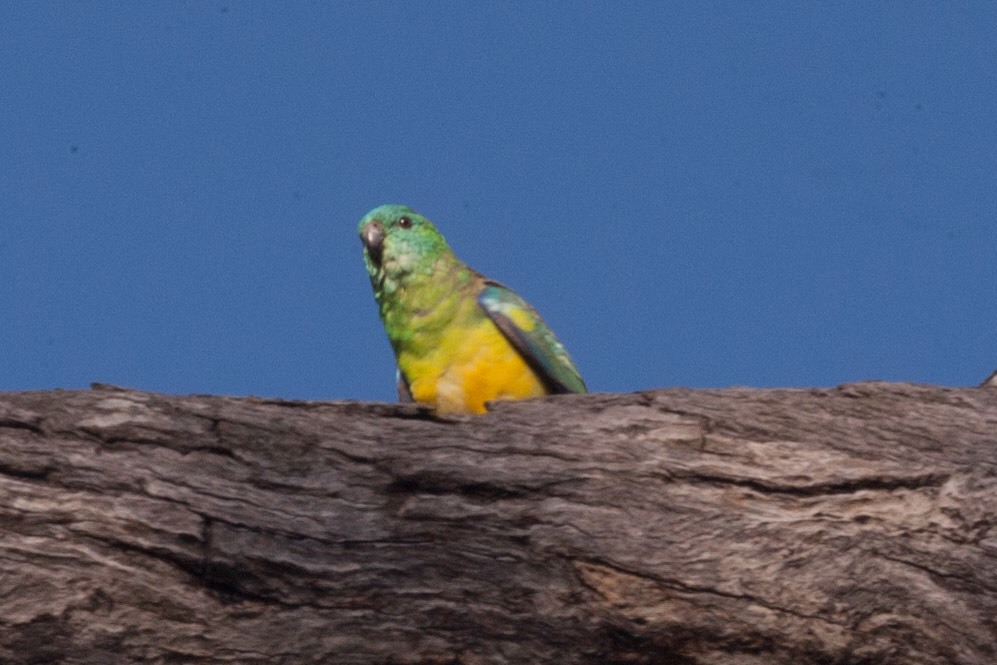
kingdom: Animalia
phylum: Chordata
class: Aves
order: Psittaciformes
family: Psittacidae
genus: Psephotus
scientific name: Psephotus haematonotus
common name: Red-rumped parrot
